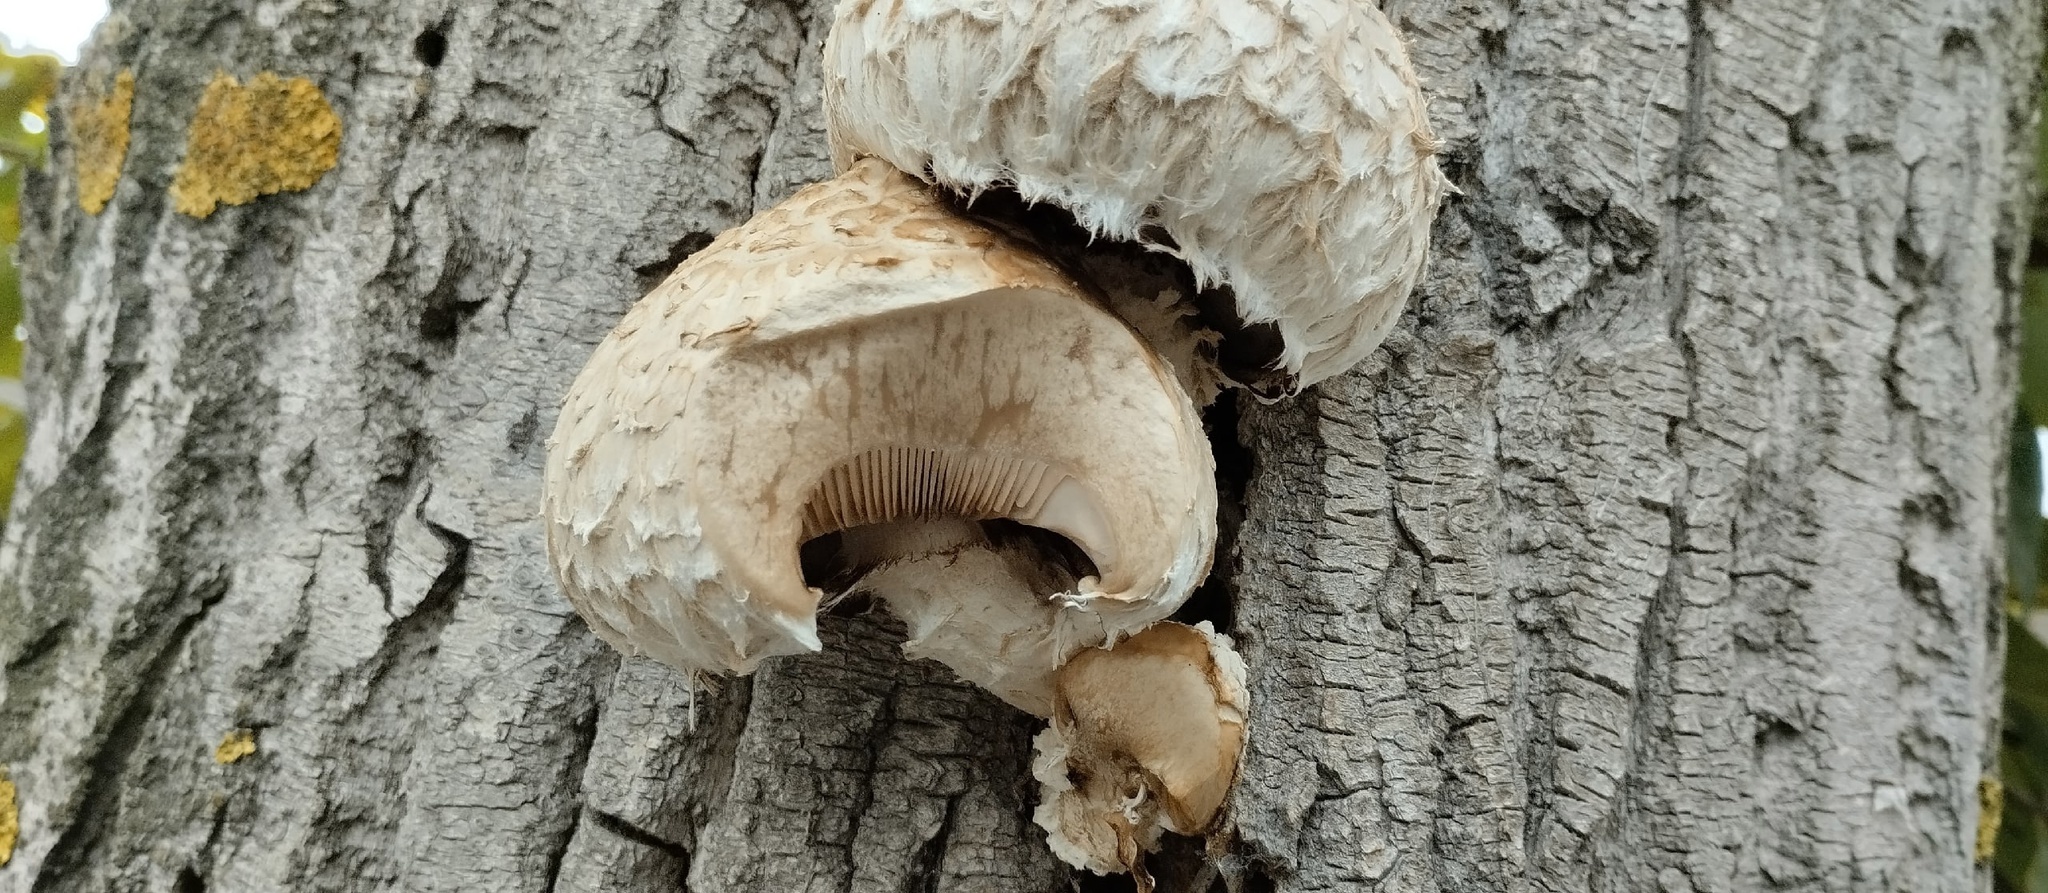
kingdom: Fungi
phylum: Basidiomycota
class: Agaricomycetes
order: Agaricales
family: Strophariaceae
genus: Pholiota
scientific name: Pholiota populnea
